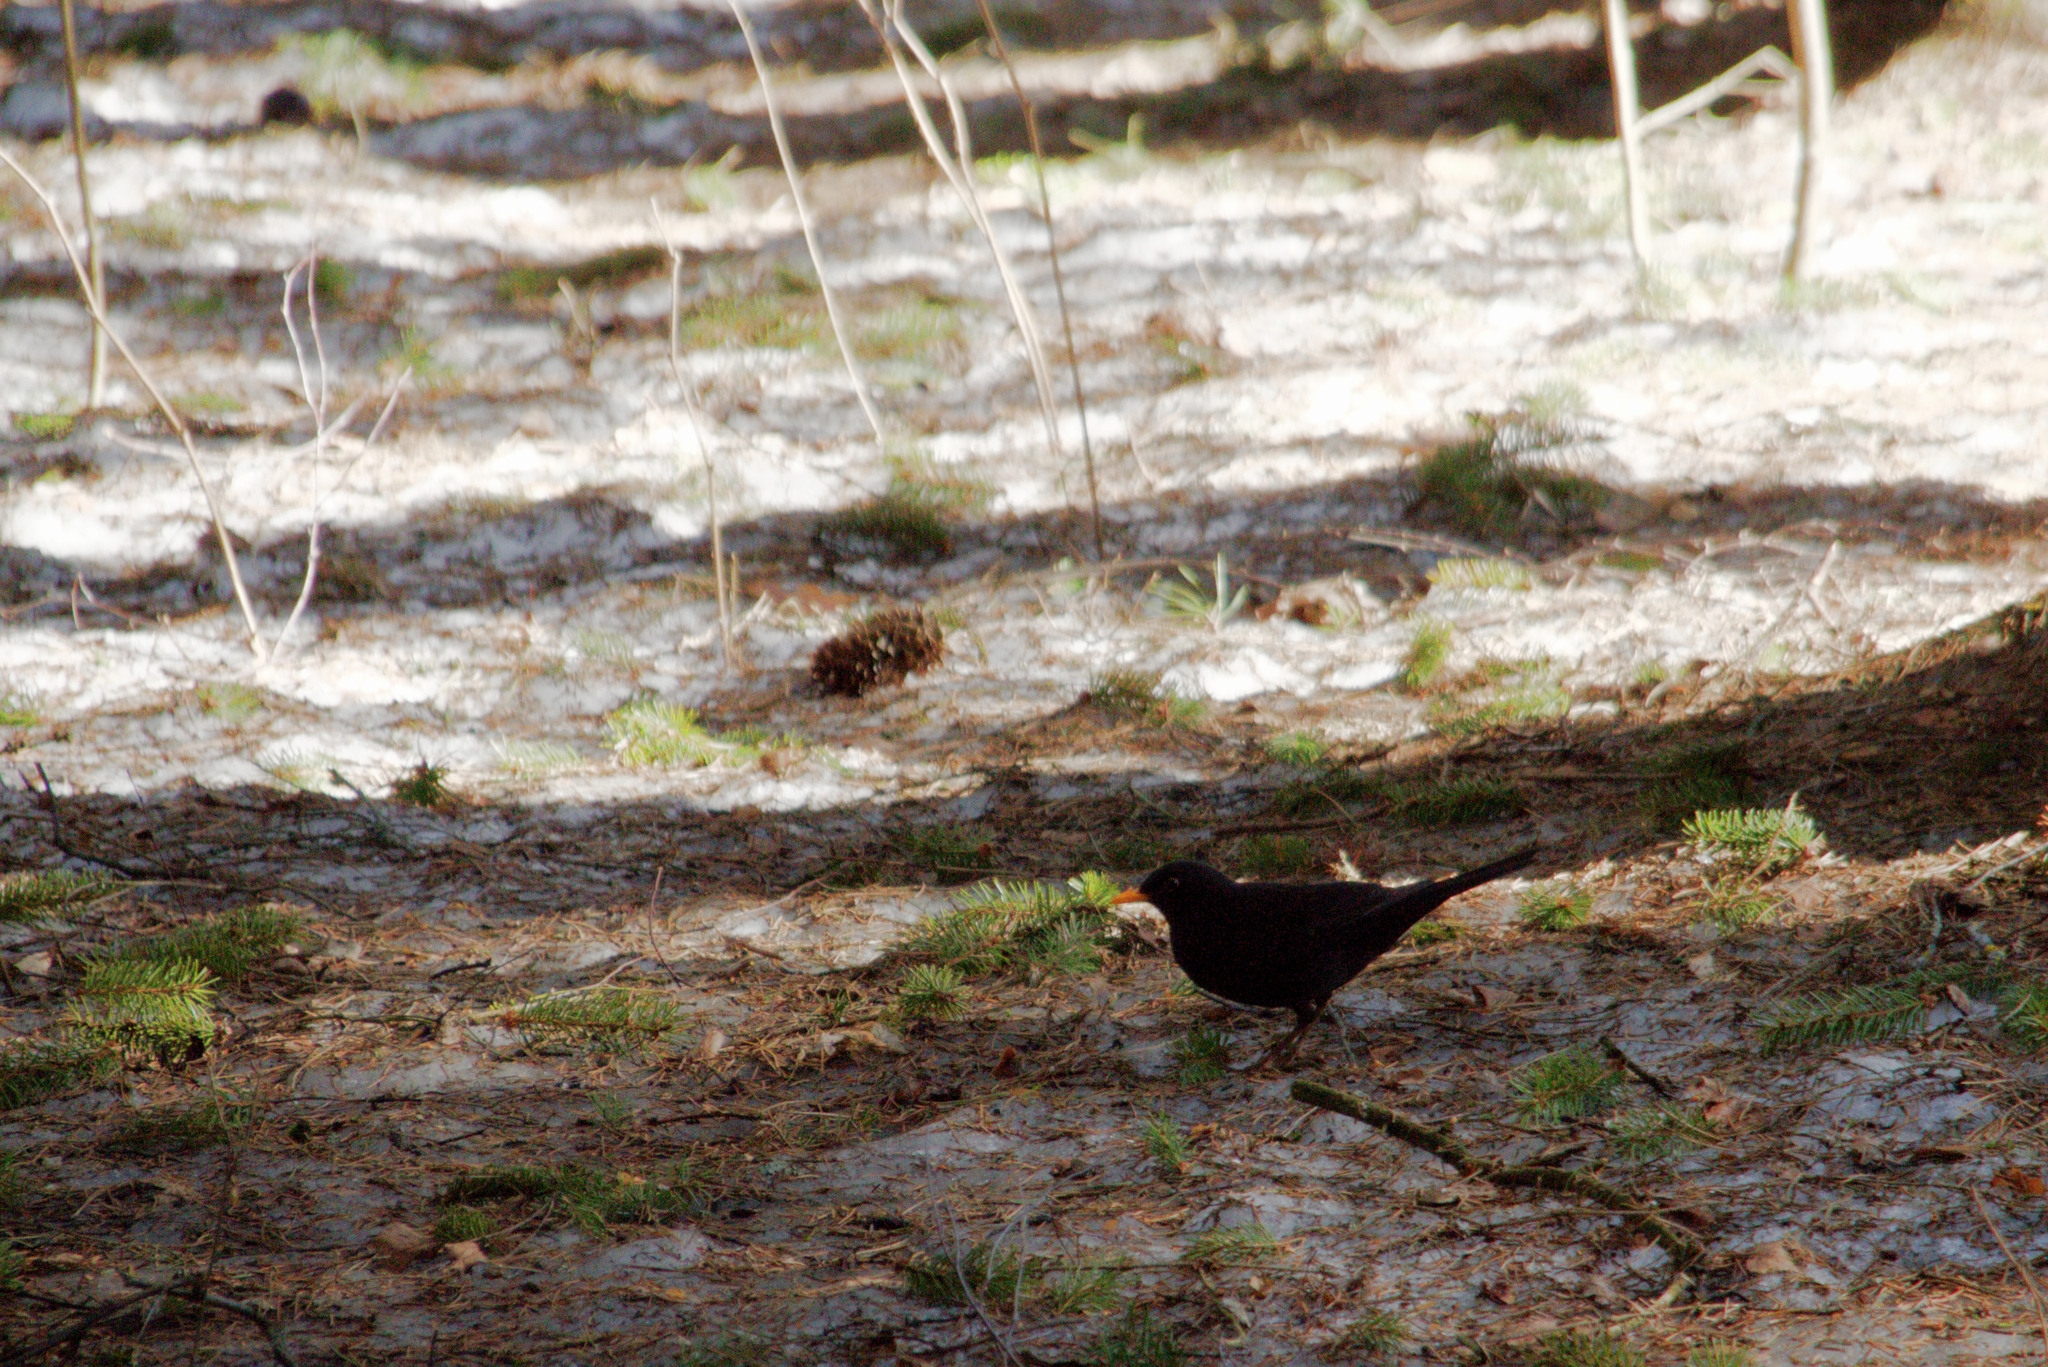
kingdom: Animalia
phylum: Chordata
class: Aves
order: Passeriformes
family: Turdidae
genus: Turdus
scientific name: Turdus merula
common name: Common blackbird
